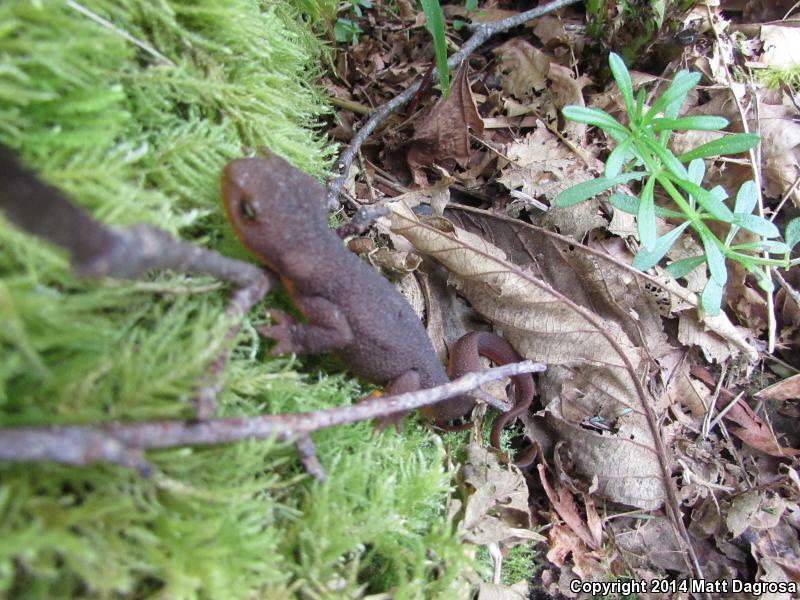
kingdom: Animalia
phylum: Chordata
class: Amphibia
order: Caudata
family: Salamandridae
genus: Taricha
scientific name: Taricha granulosa
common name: Roughskin newt
